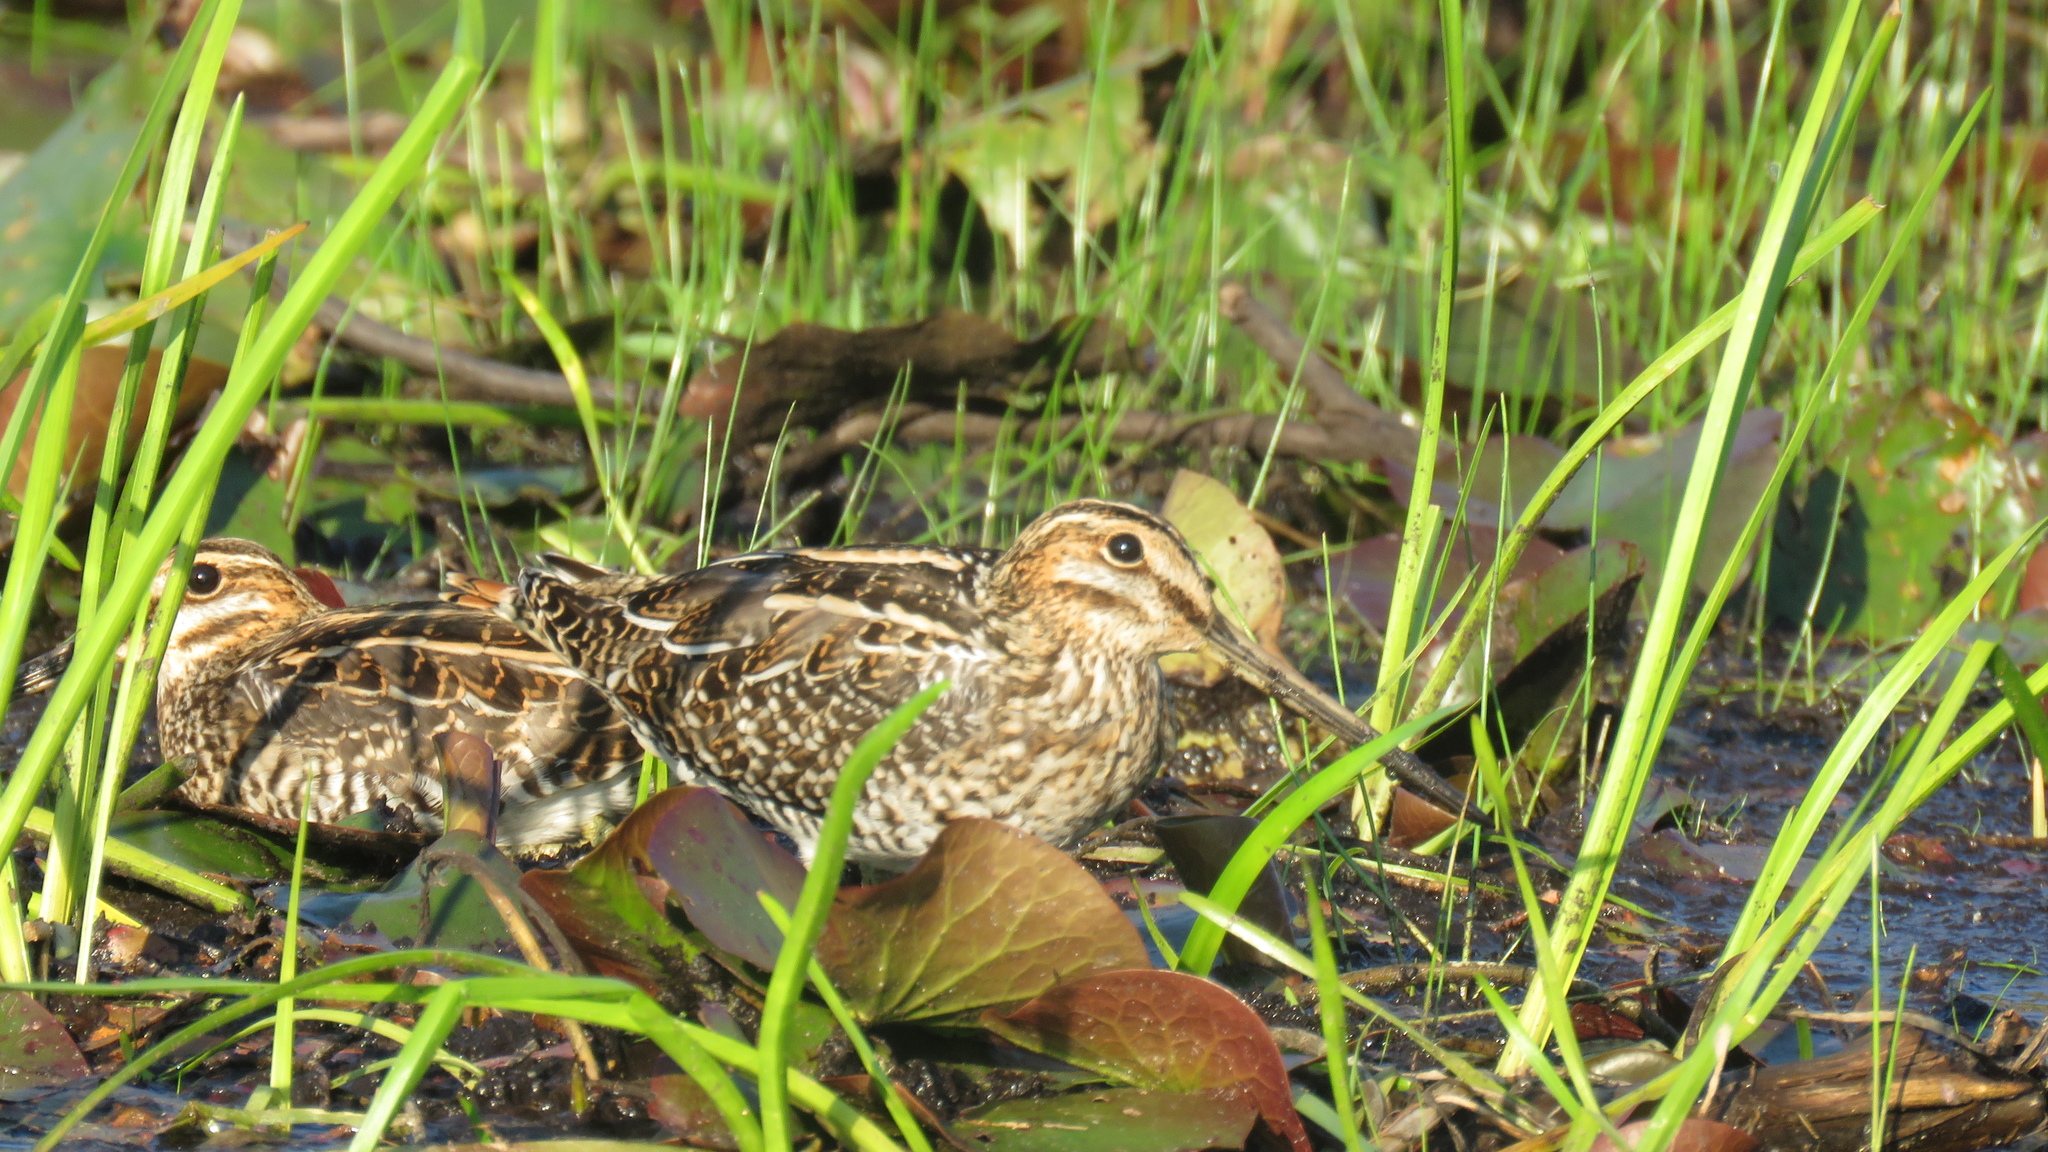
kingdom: Animalia
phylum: Chordata
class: Aves
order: Charadriiformes
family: Scolopacidae
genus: Gallinago
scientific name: Gallinago delicata
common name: Wilson's snipe
